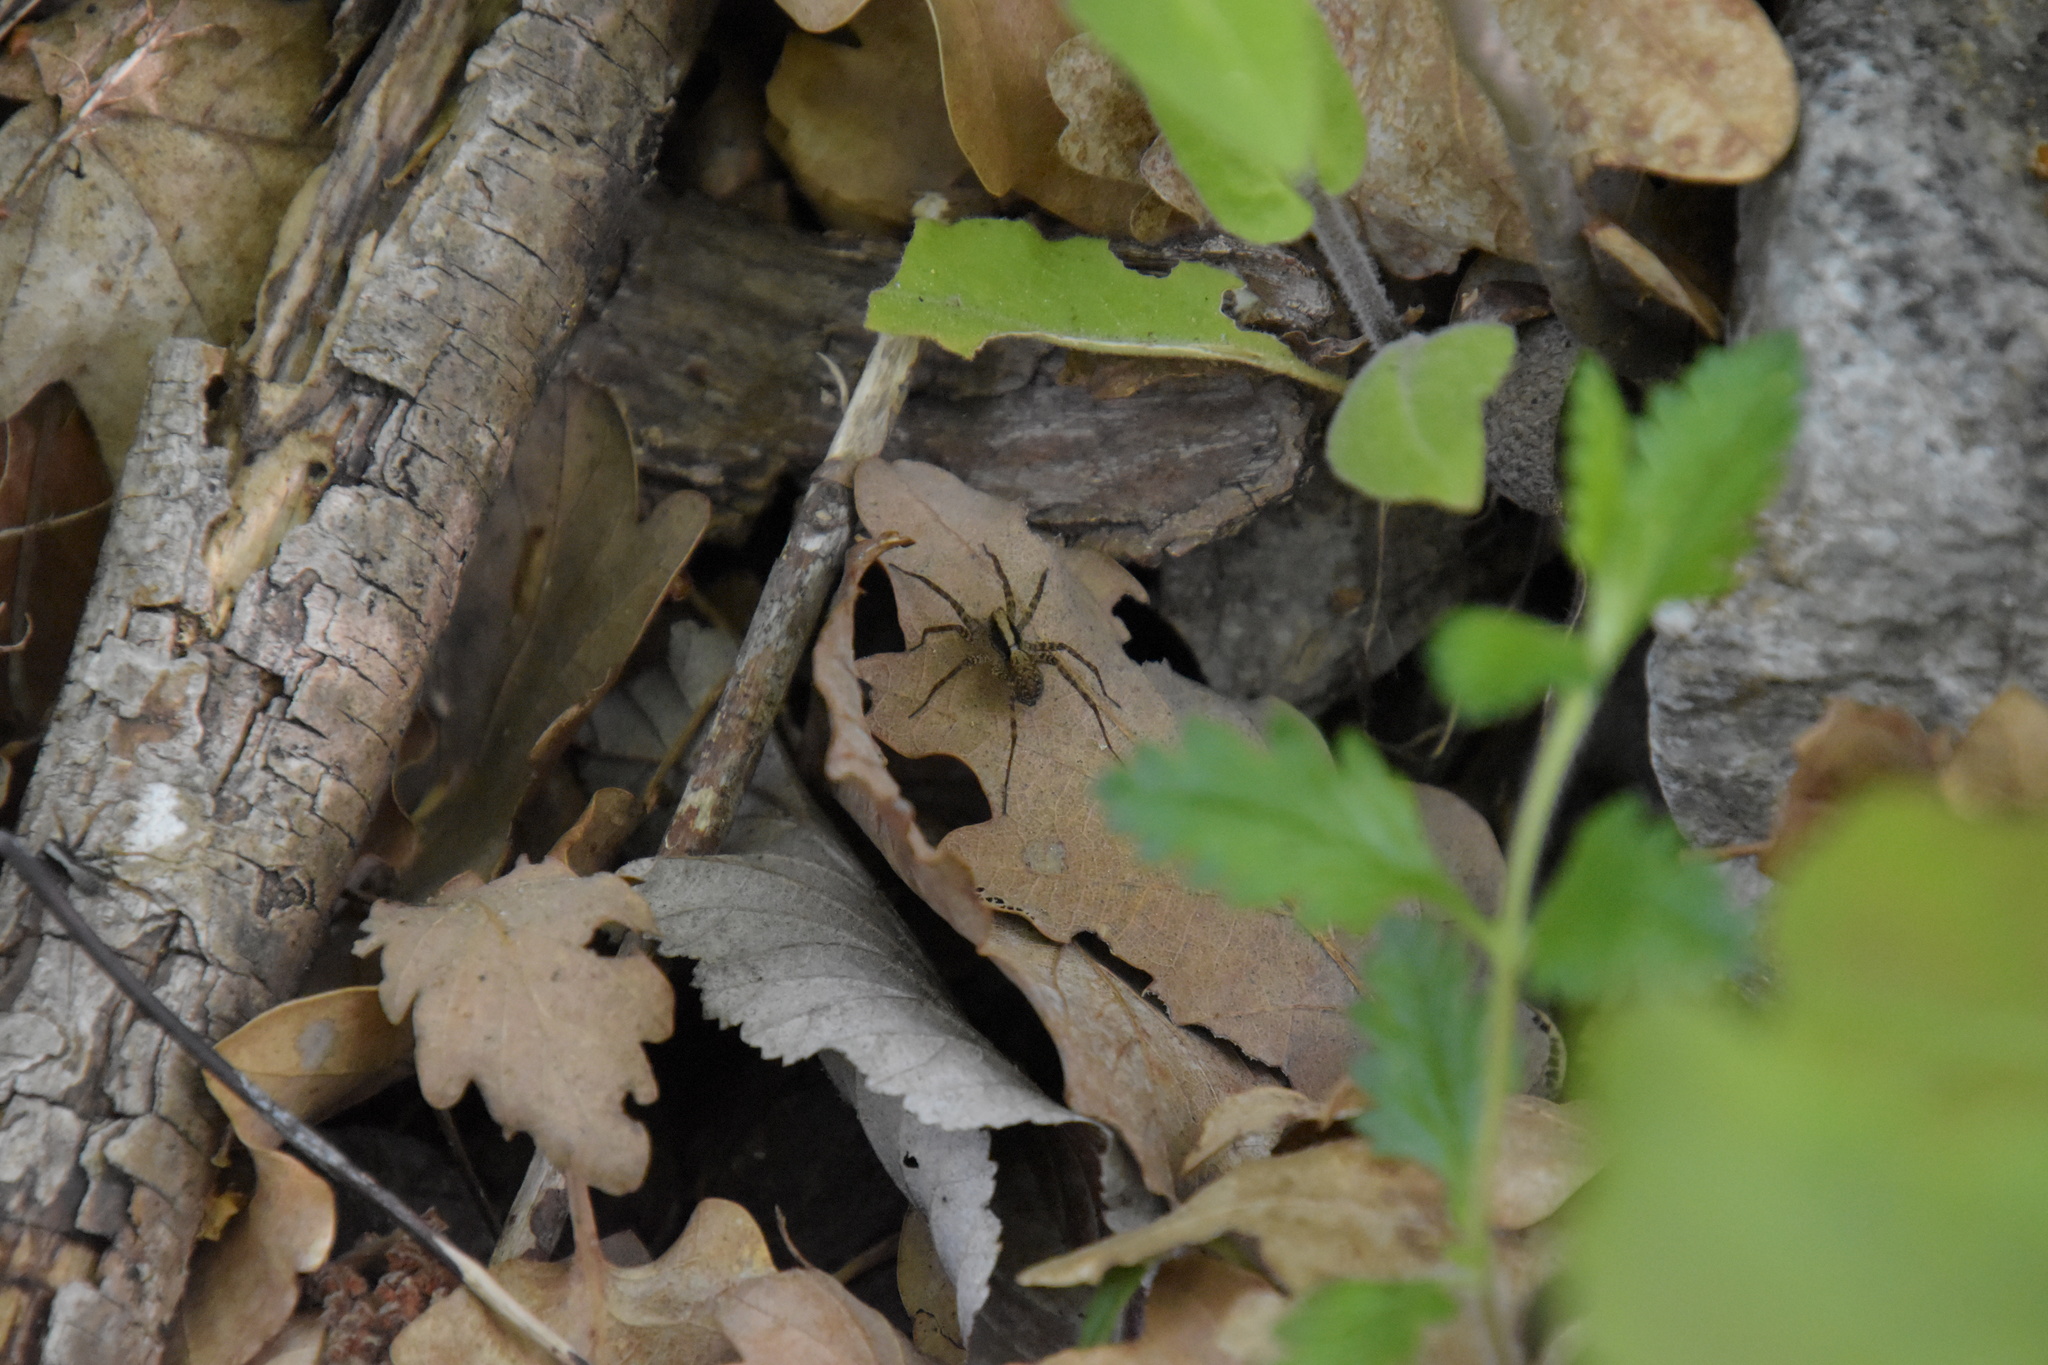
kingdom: Animalia
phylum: Arthropoda
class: Arachnida
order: Araneae
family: Lycosidae
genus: Pardosa
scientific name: Pardosa
